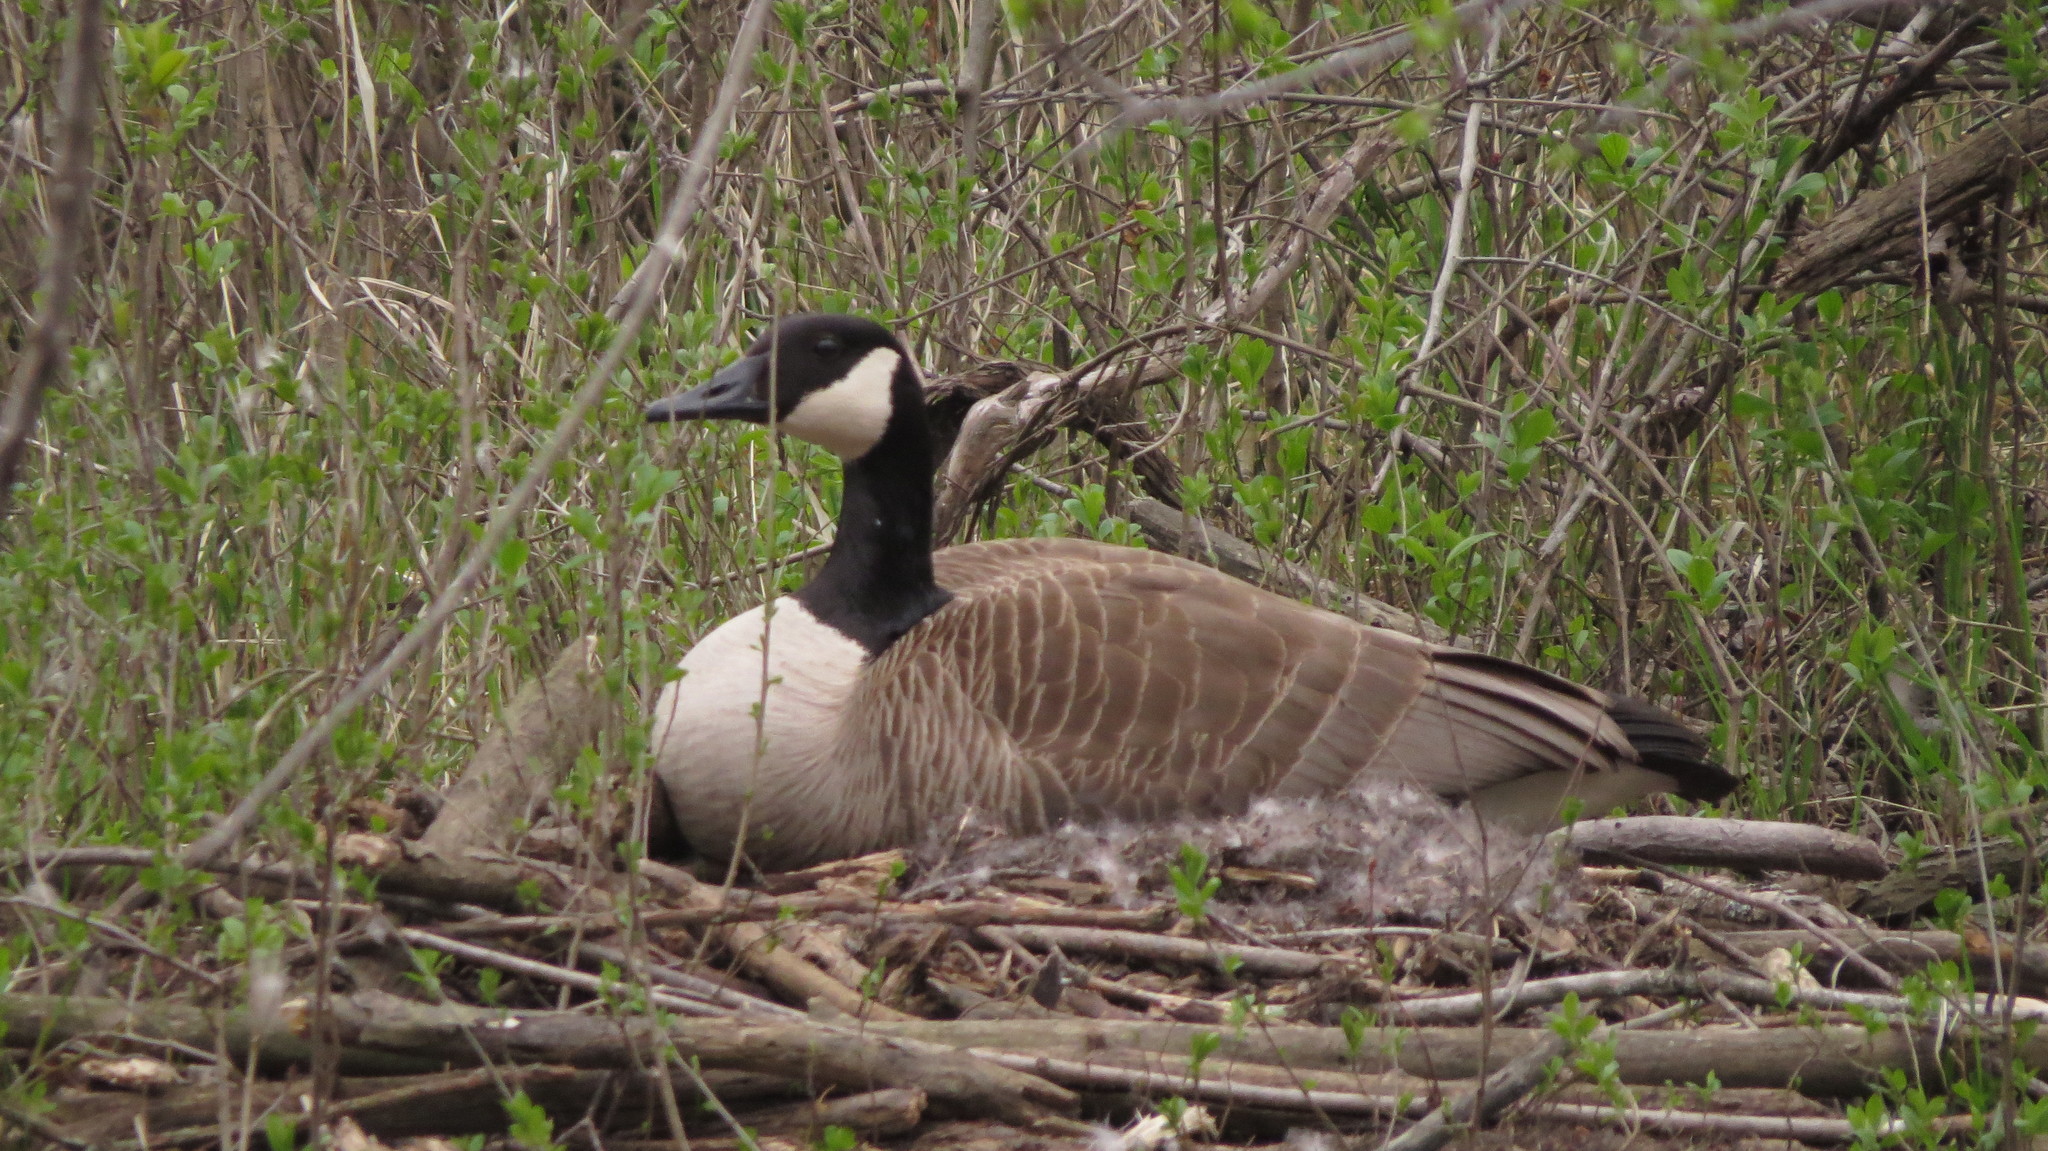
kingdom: Animalia
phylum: Chordata
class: Aves
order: Anseriformes
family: Anatidae
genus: Branta
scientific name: Branta canadensis
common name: Canada goose
